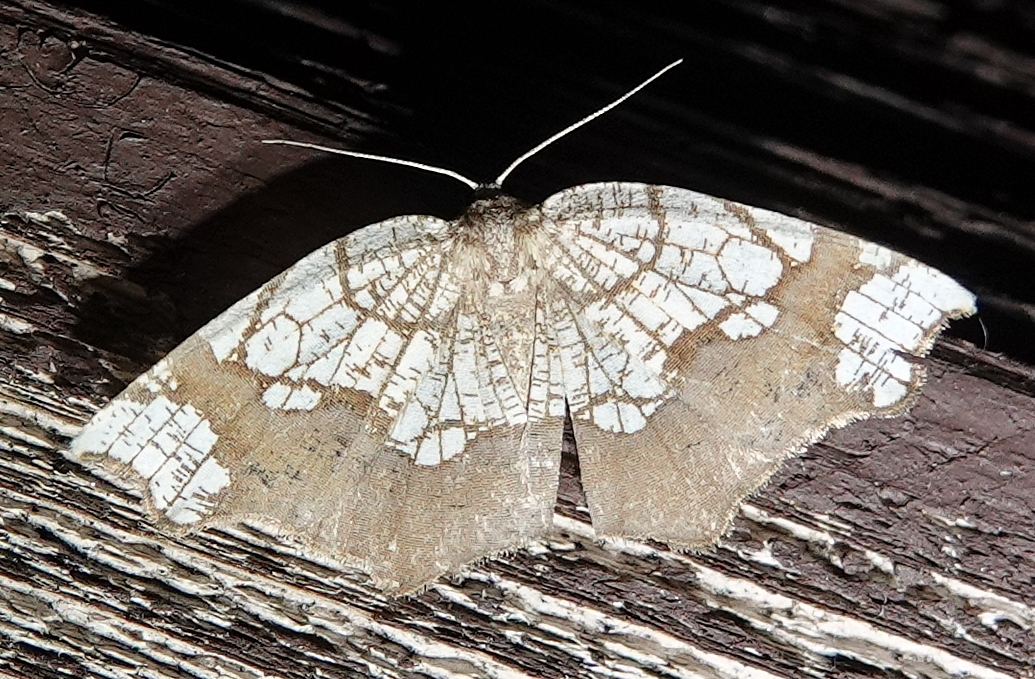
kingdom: Animalia
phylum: Arthropoda
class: Insecta
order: Lepidoptera
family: Geometridae
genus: Nematocampa
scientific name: Nematocampa resistaria
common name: Horned spanworm moth
